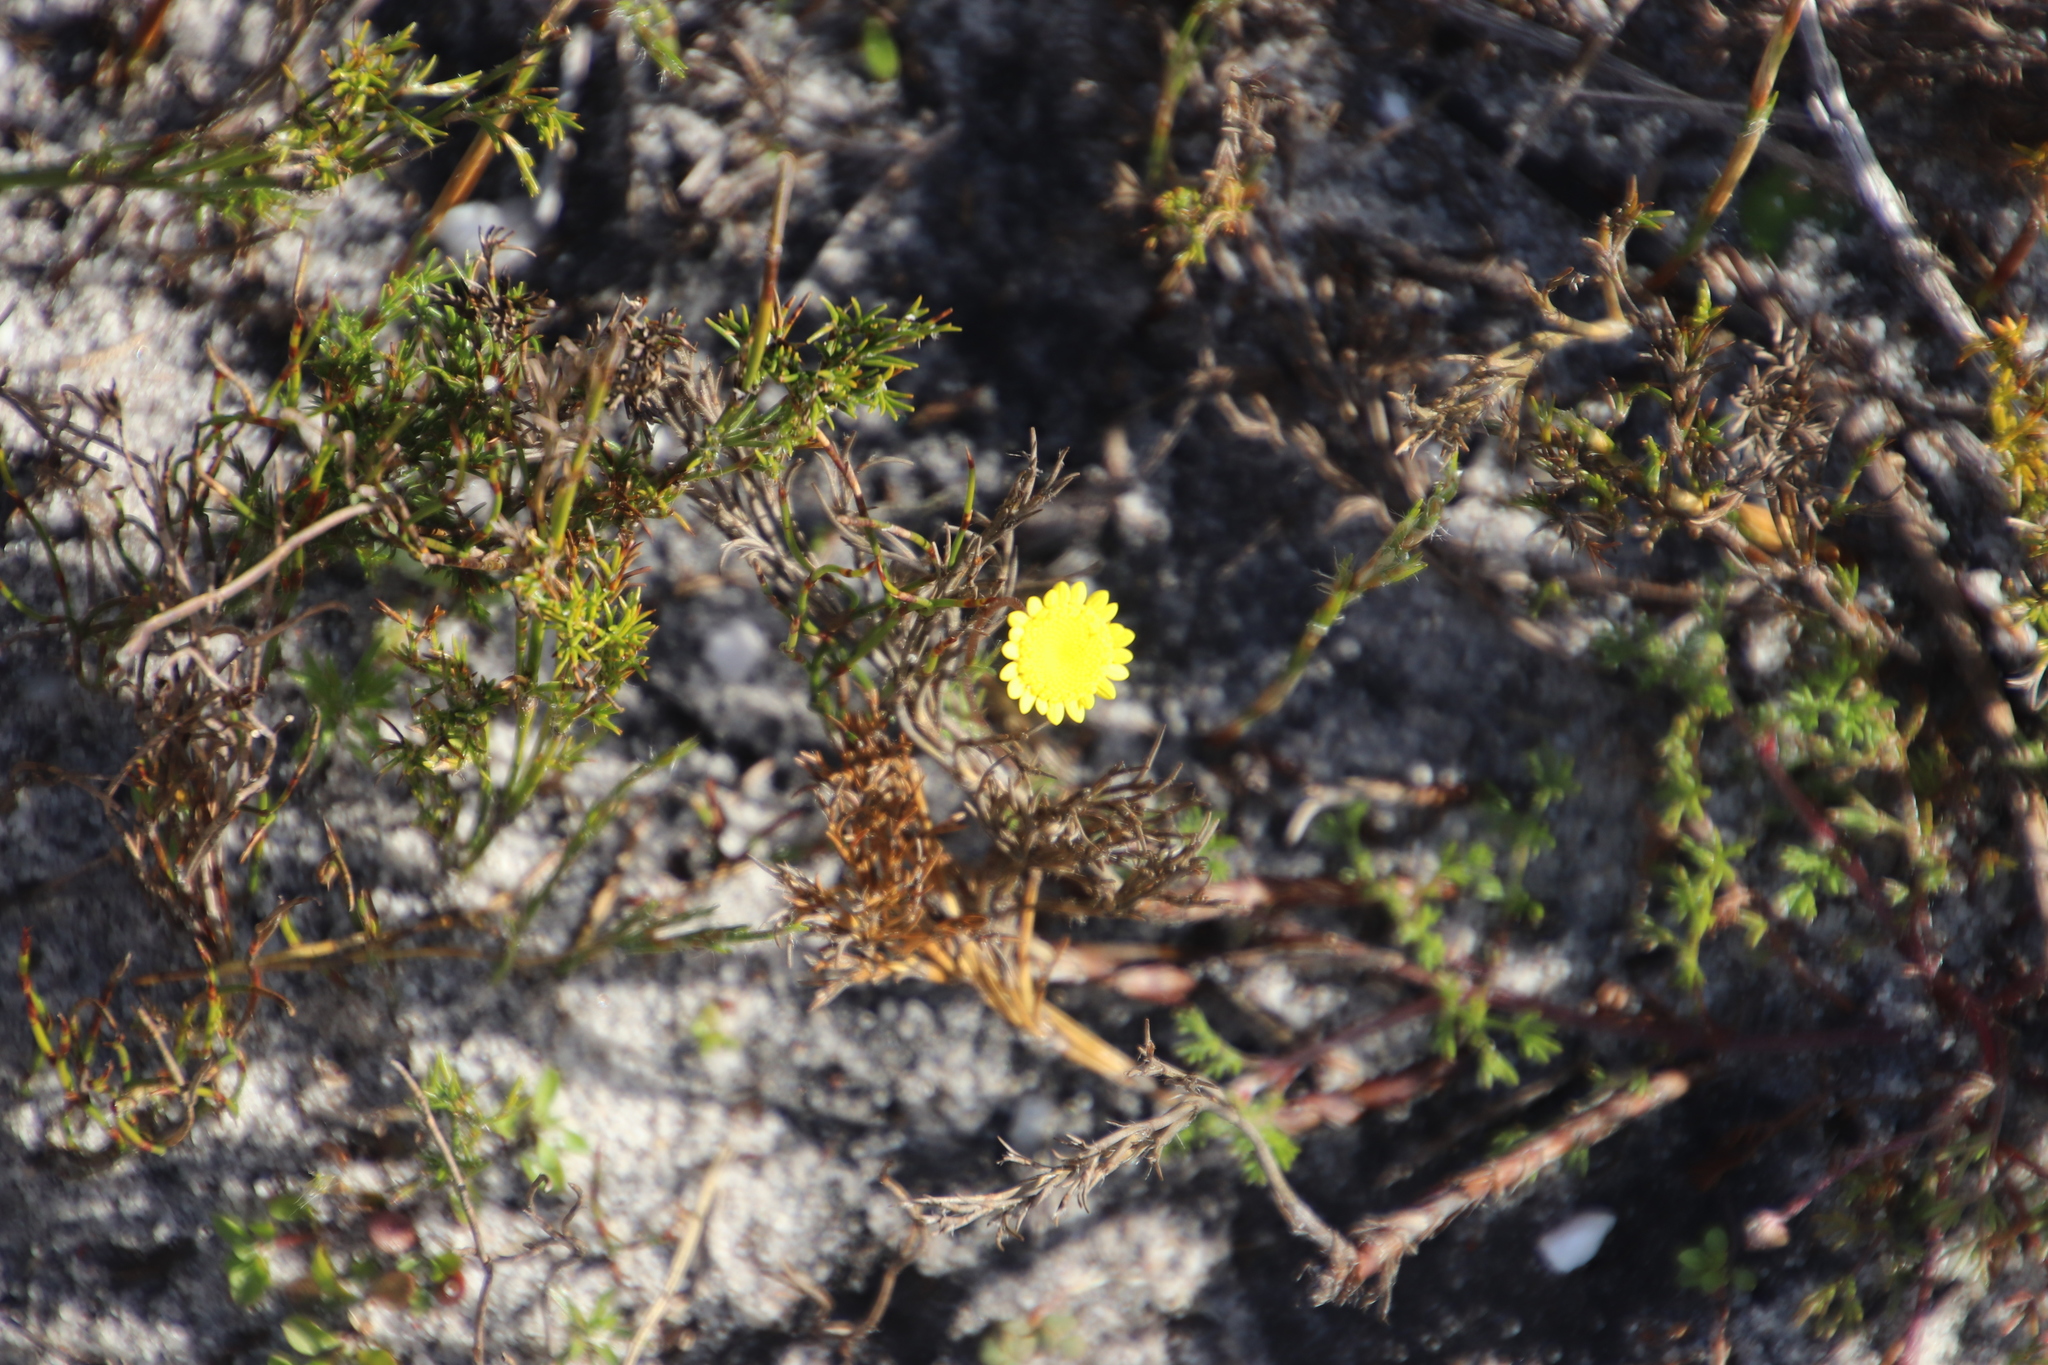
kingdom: Plantae
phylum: Tracheophyta
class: Magnoliopsida
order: Asterales
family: Asteraceae
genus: Cotula
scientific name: Cotula pruinosa
